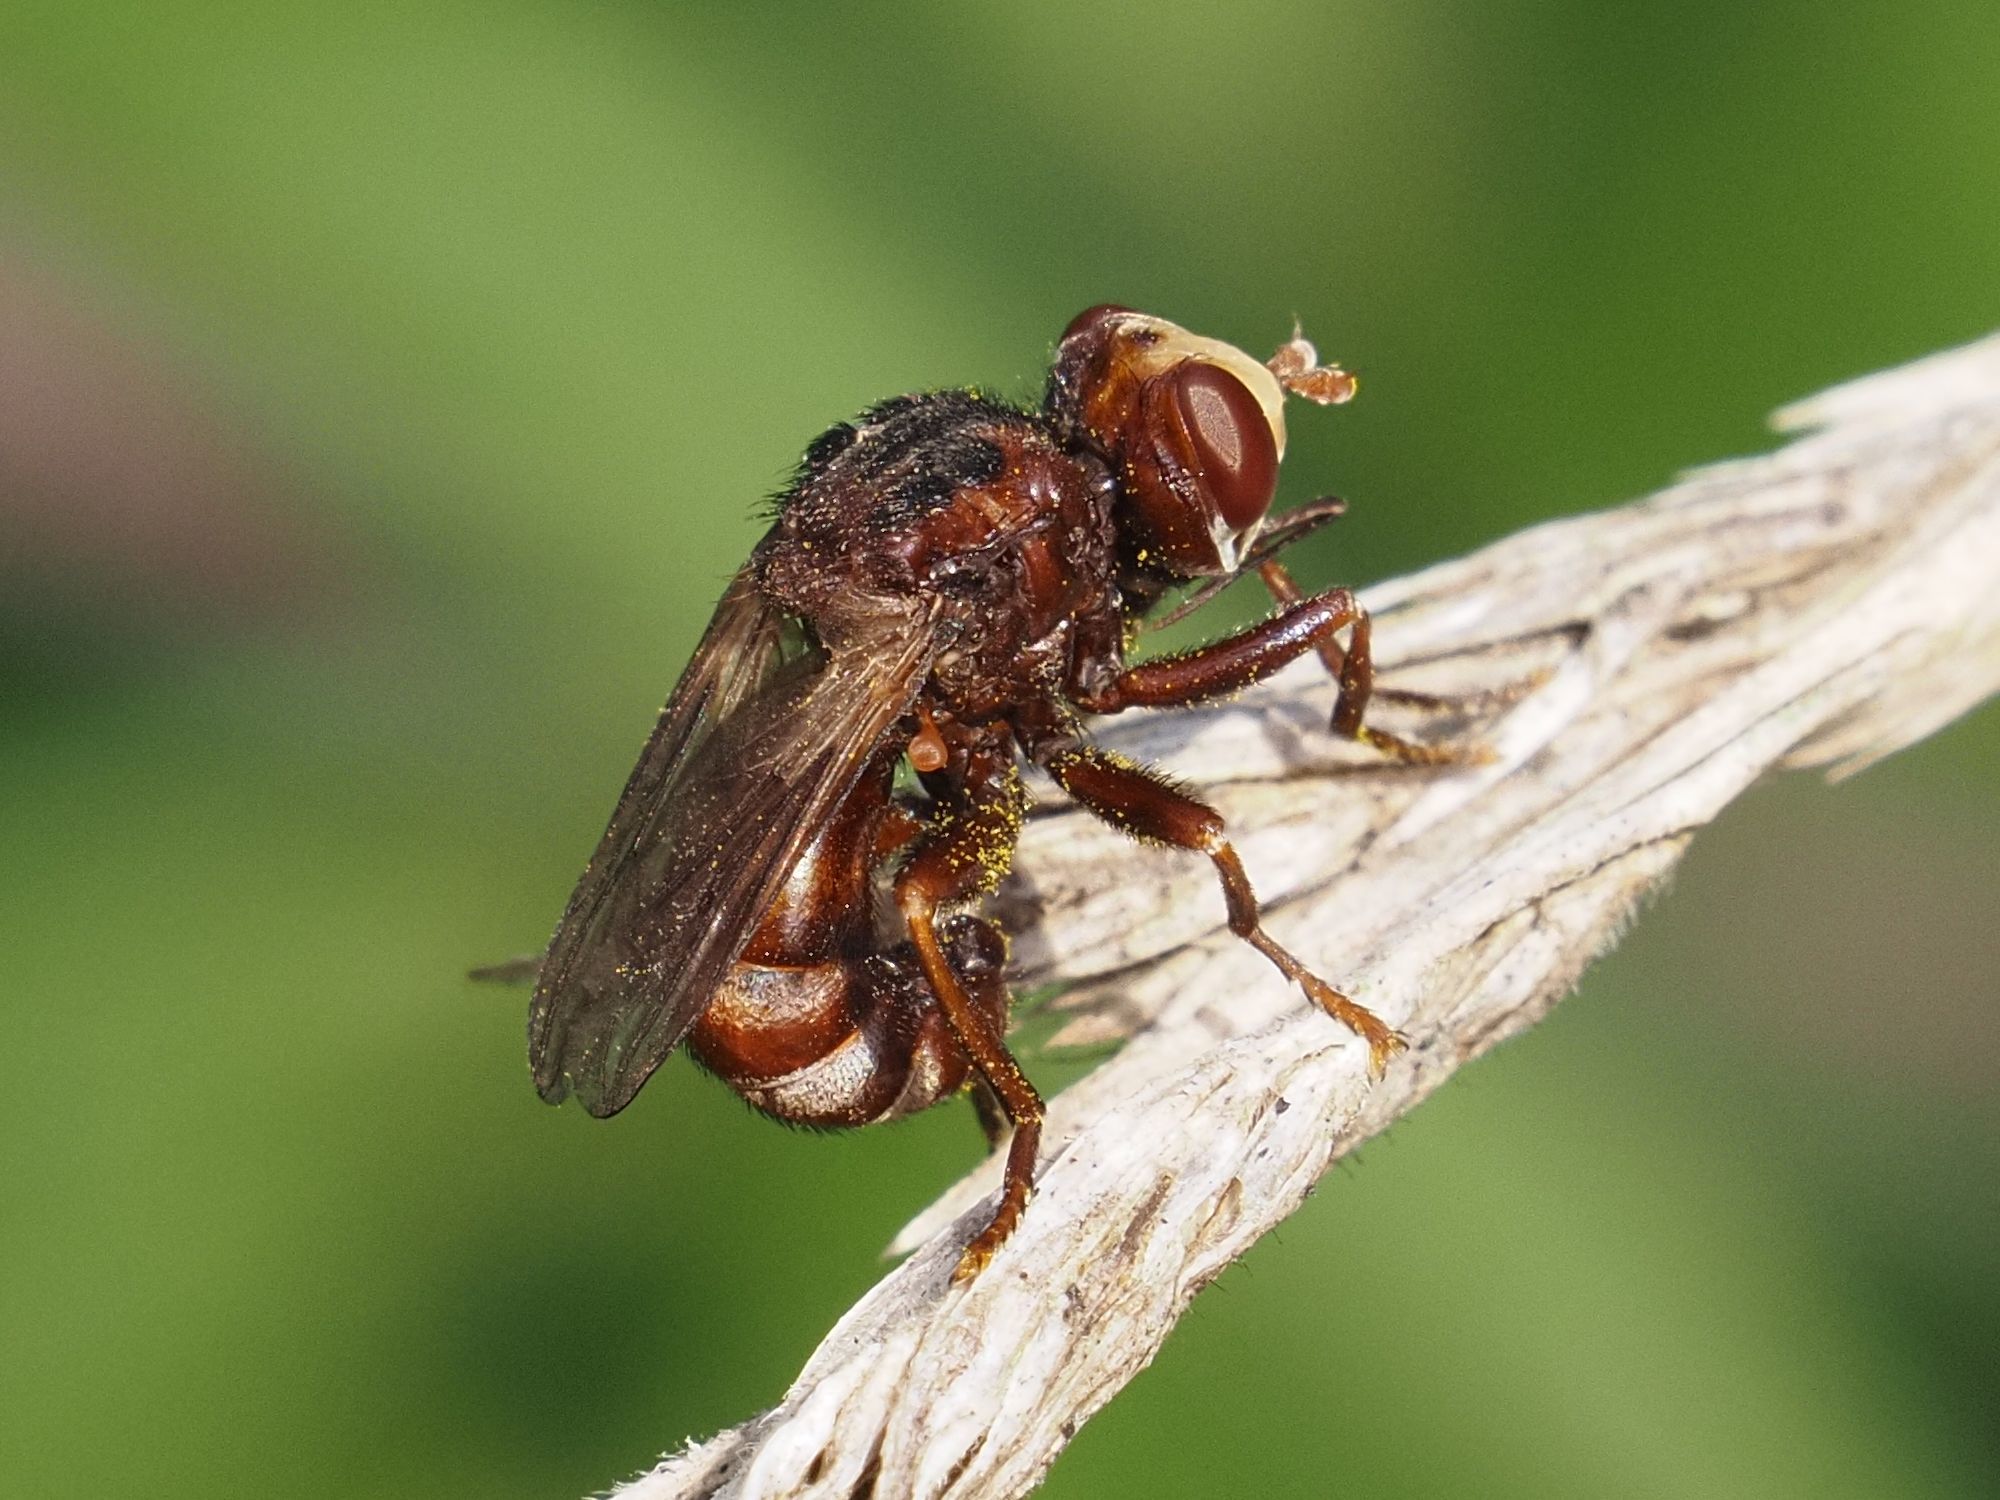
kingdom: Animalia
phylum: Arthropoda
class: Insecta
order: Diptera
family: Conopidae
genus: Sicus
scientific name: Sicus ferrugineus
